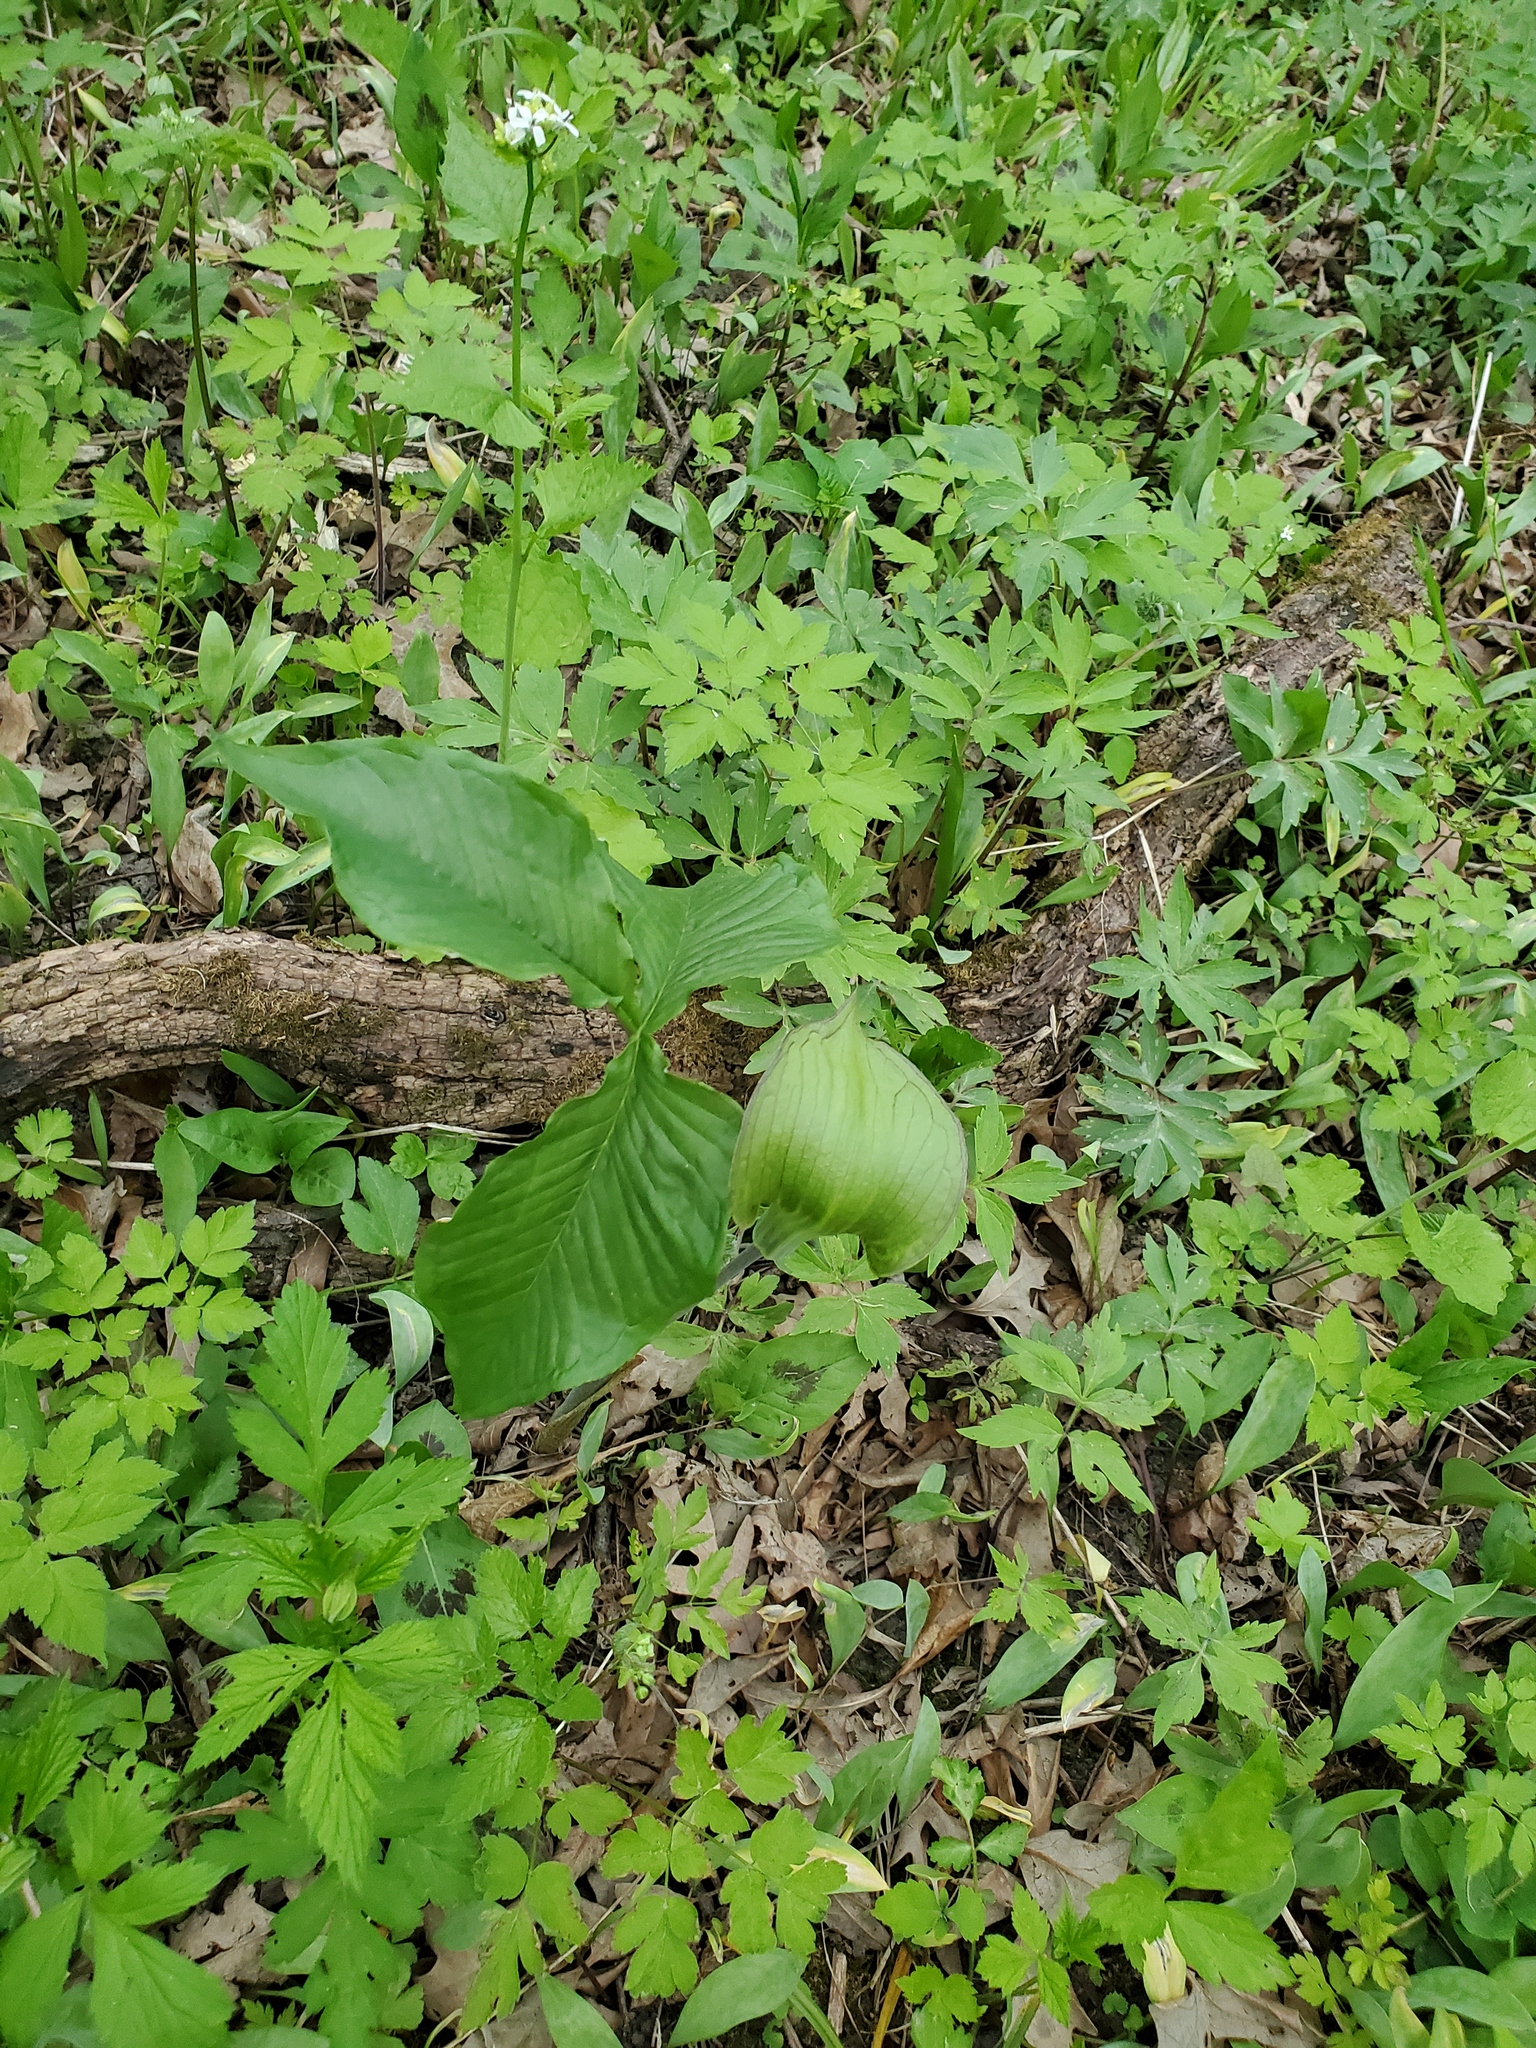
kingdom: Plantae
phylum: Tracheophyta
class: Liliopsida
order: Alismatales
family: Araceae
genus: Arisaema
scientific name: Arisaema triphyllum
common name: Jack-in-the-pulpit
